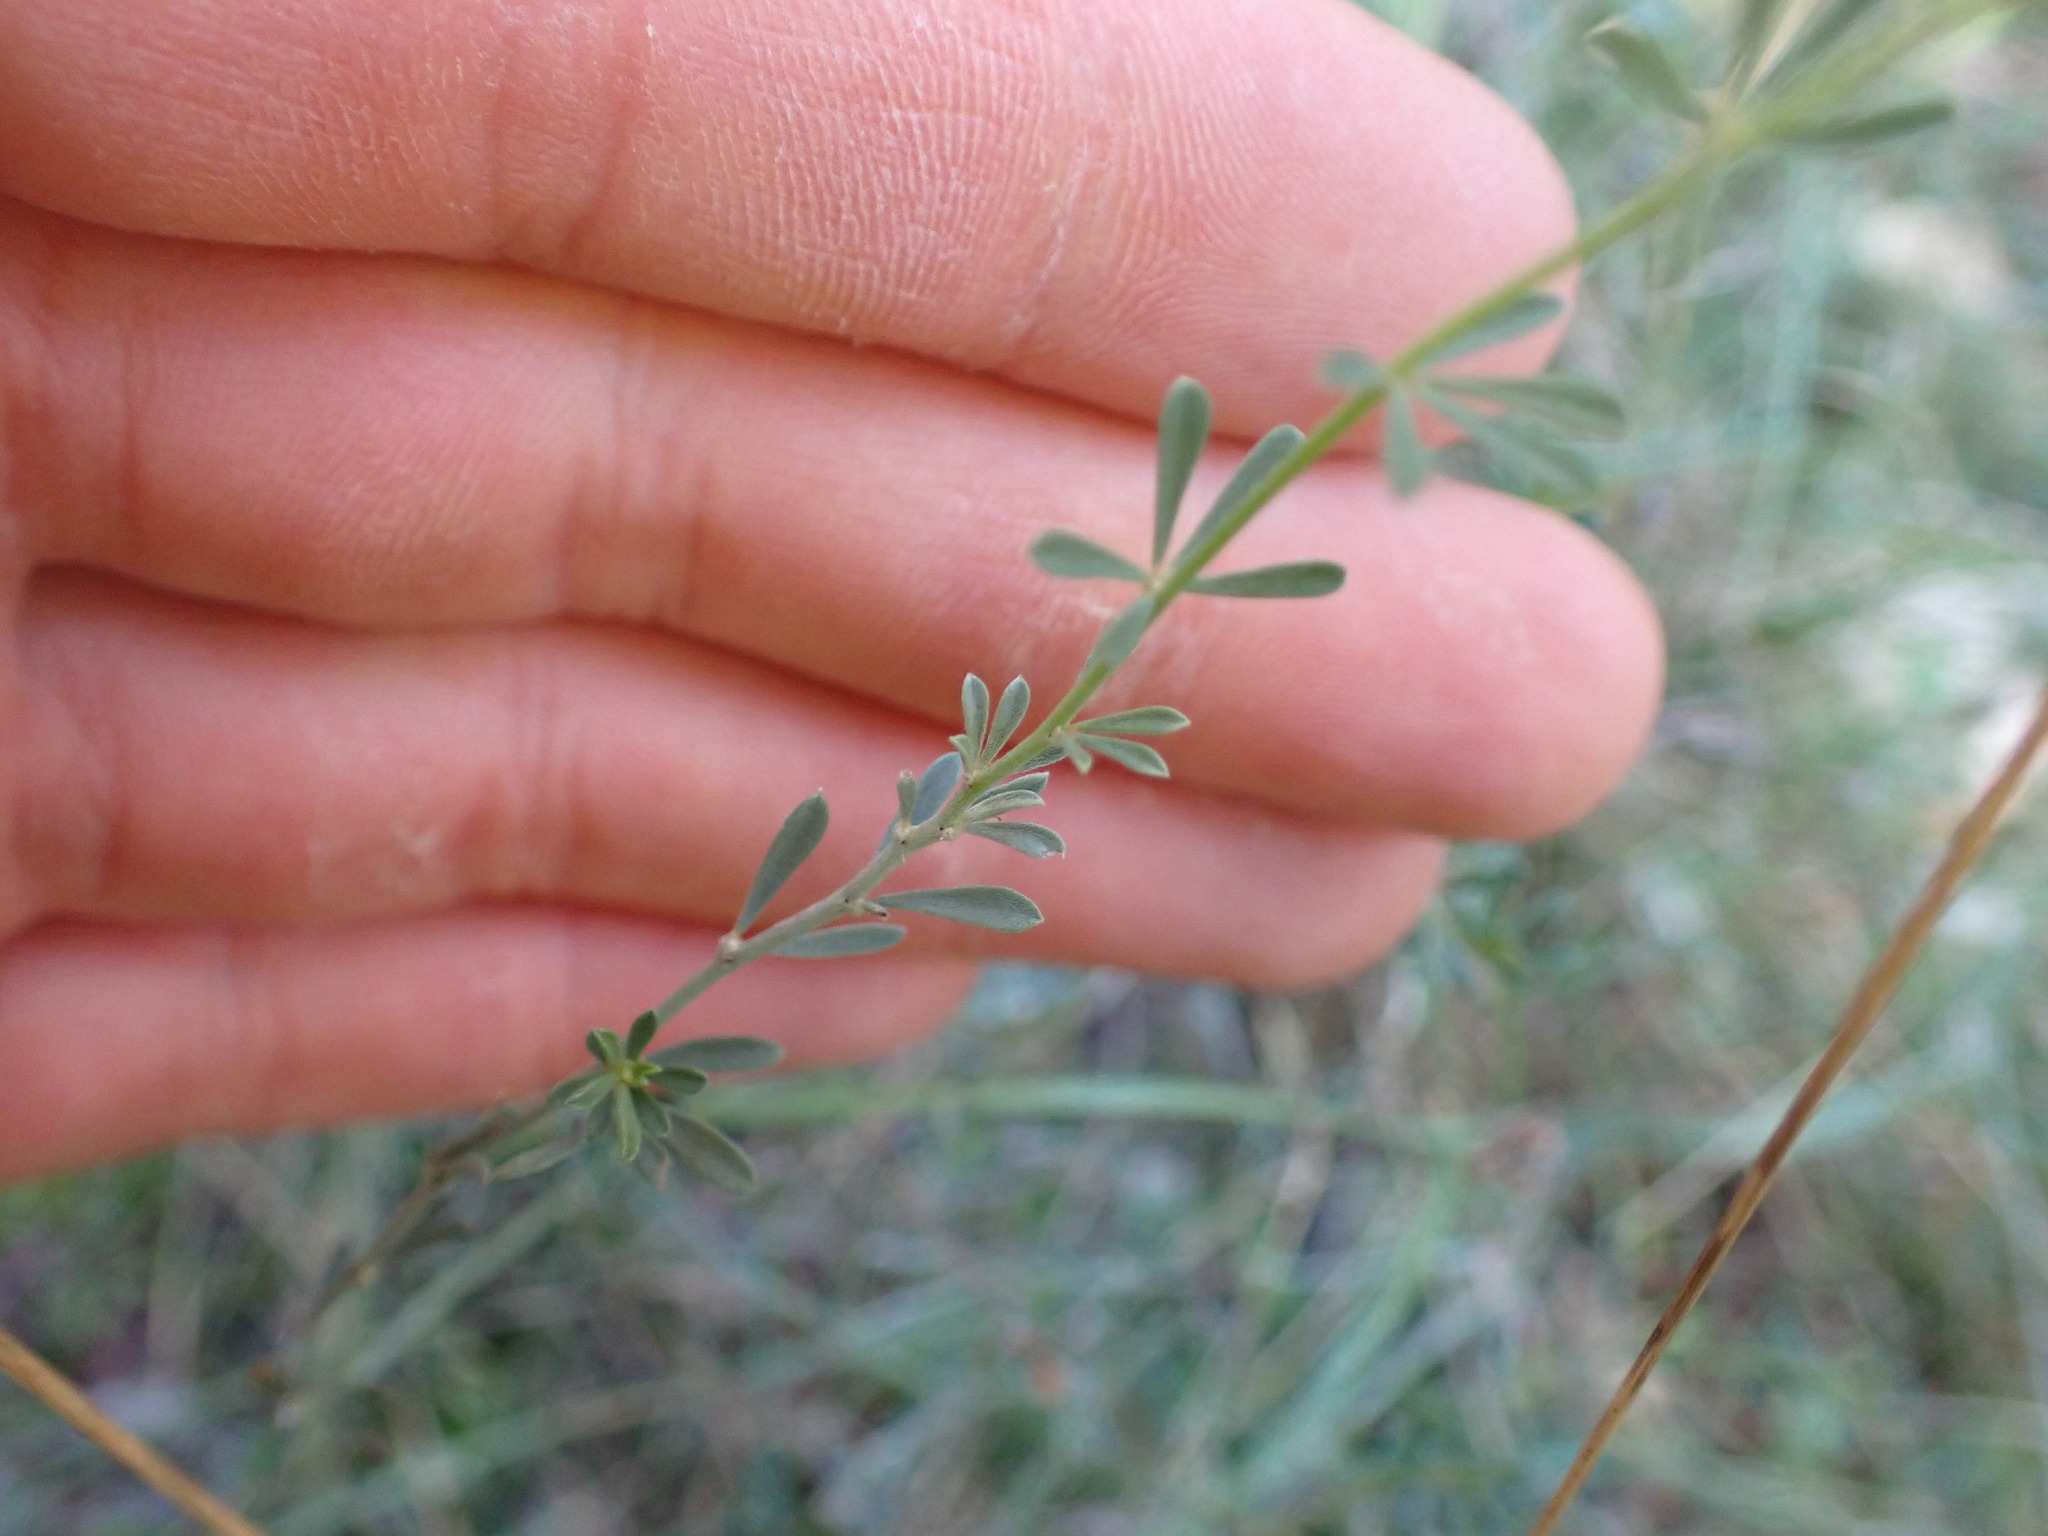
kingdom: Plantae
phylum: Tracheophyta
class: Magnoliopsida
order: Fabales
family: Fabaceae
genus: Lotus
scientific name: Lotus dorycnium
